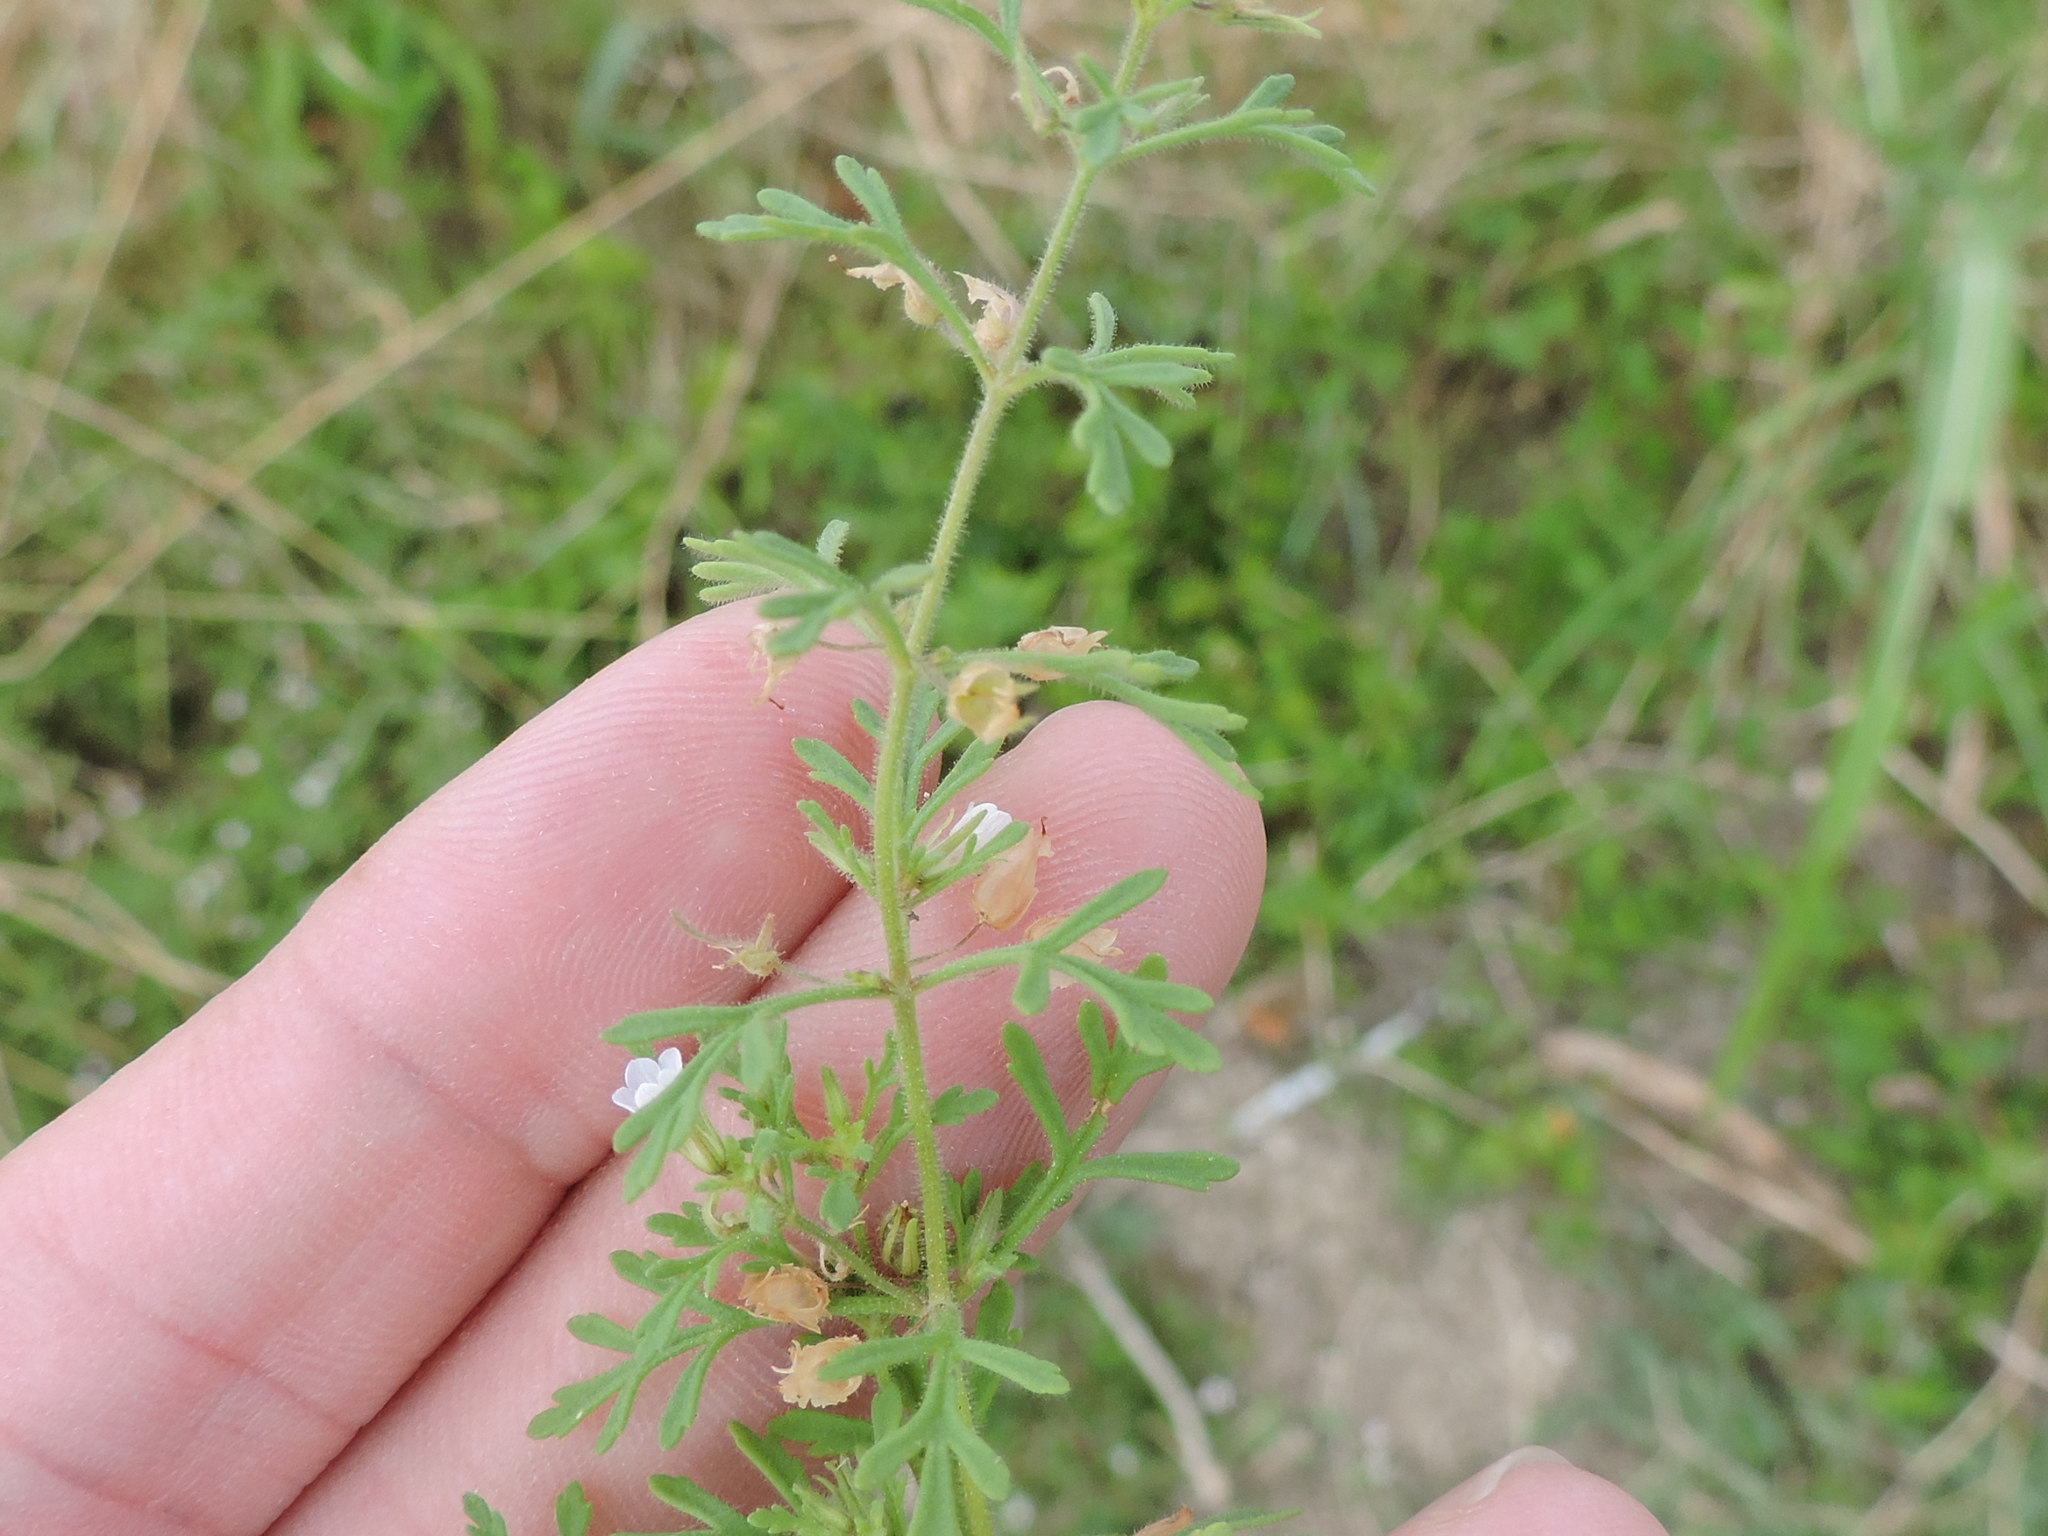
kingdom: Plantae
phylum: Tracheophyta
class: Magnoliopsida
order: Lamiales
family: Plantaginaceae
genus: Leucospora
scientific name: Leucospora multifida
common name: Narrow-leaf paleseed
